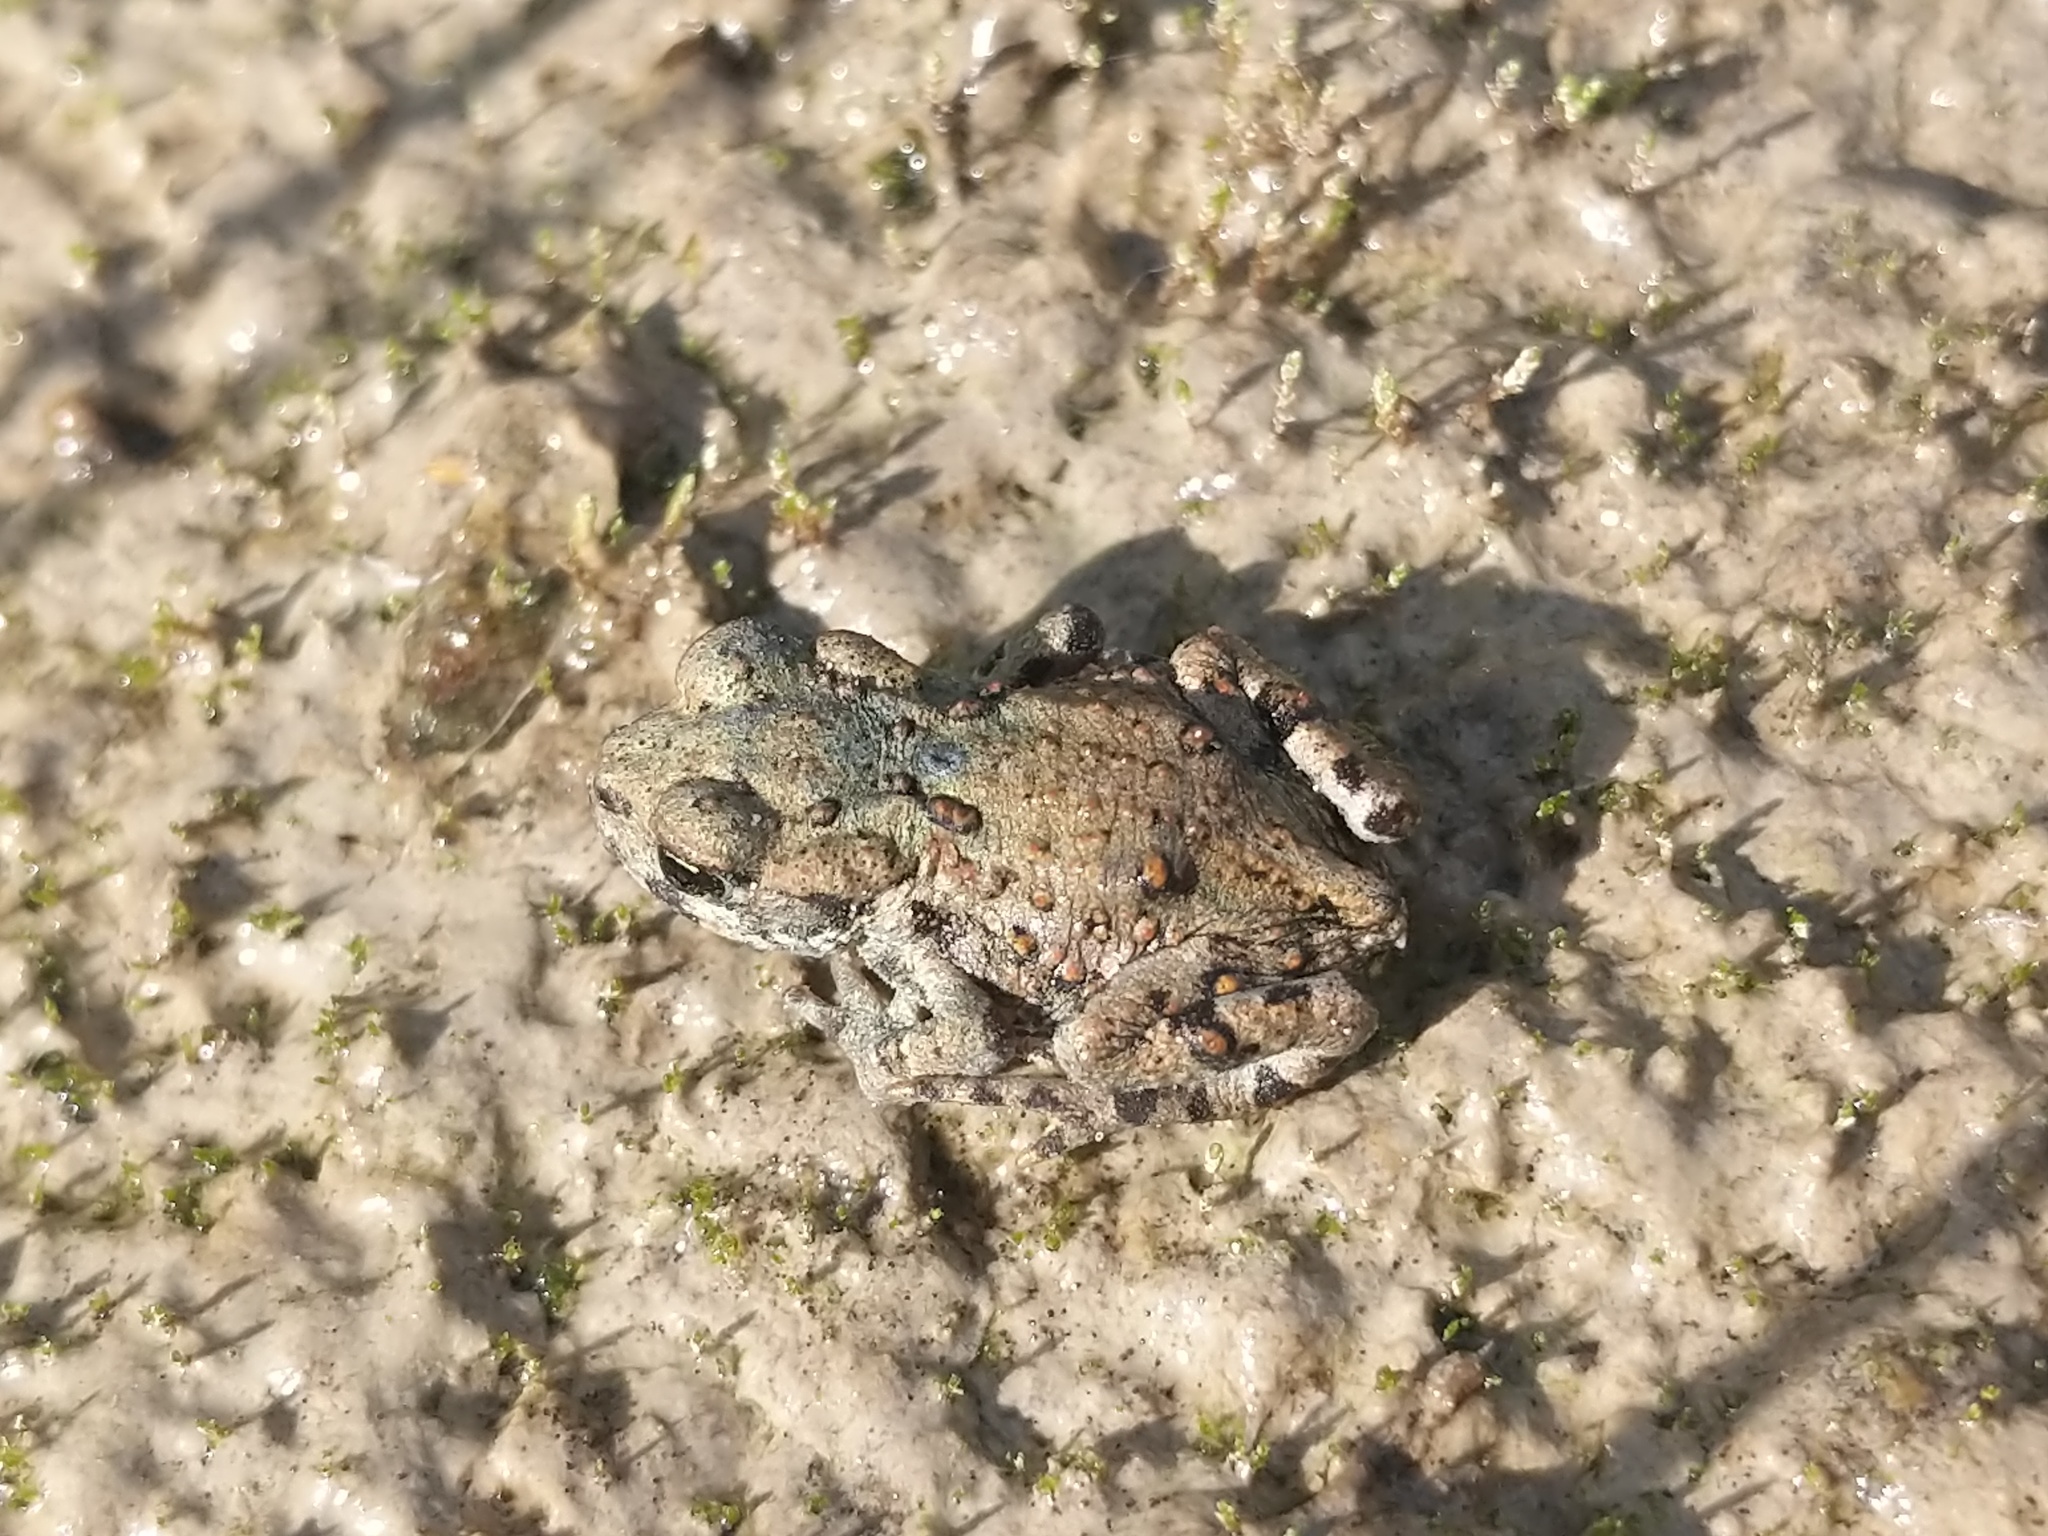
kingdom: Animalia
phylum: Chordata
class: Amphibia
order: Anura
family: Bufonidae
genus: Anaxyrus
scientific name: Anaxyrus boreas
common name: Western toad
